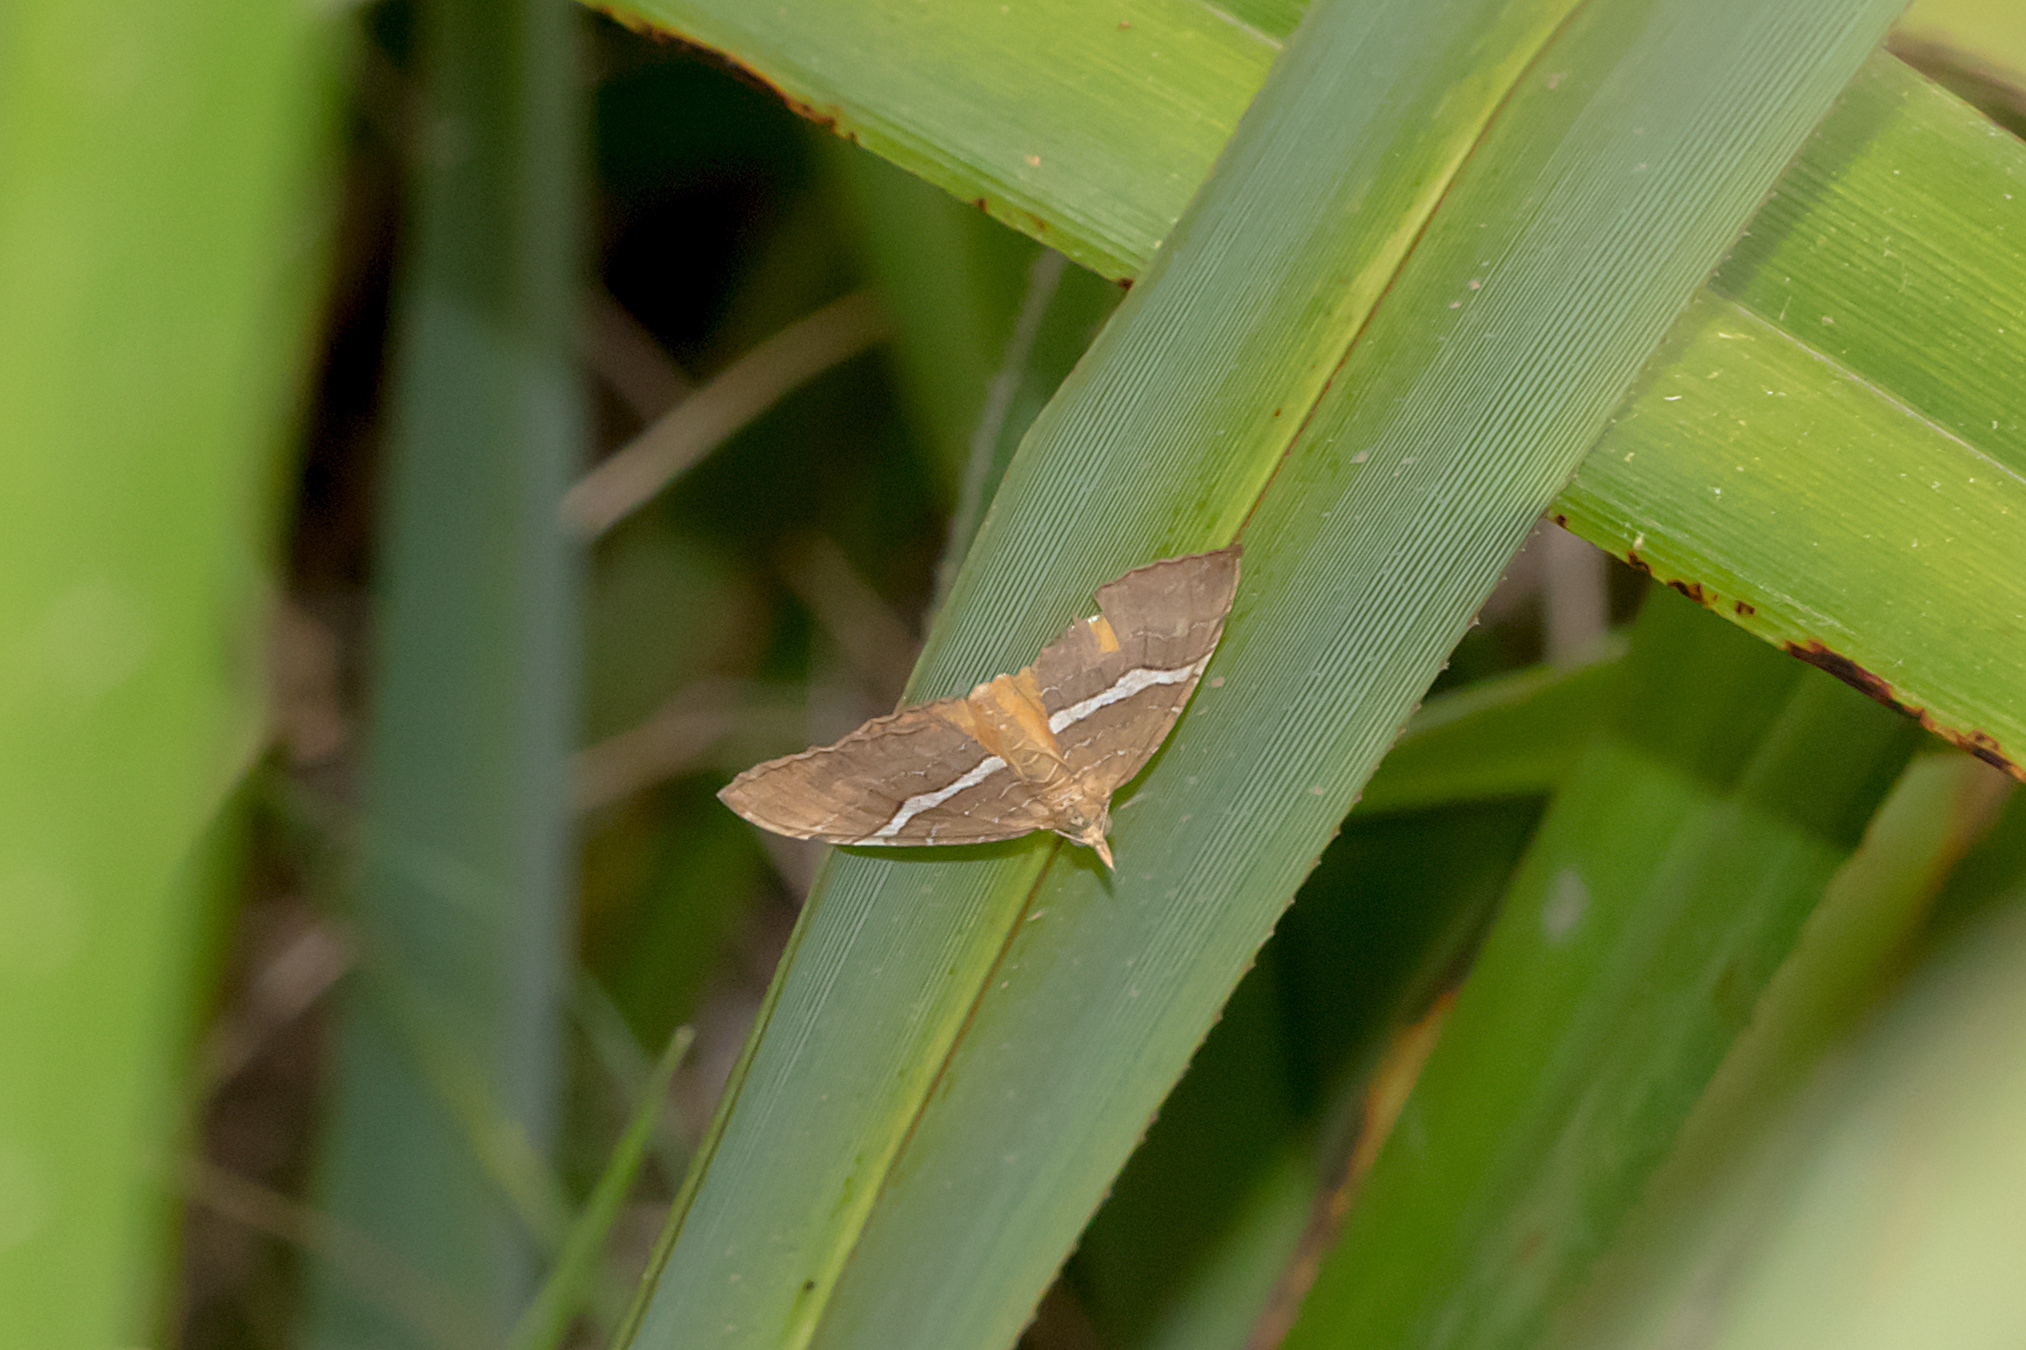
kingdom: Animalia
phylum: Arthropoda
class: Insecta
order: Lepidoptera
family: Geometridae
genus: Chrysolarentia
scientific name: Chrysolarentia leucozona
